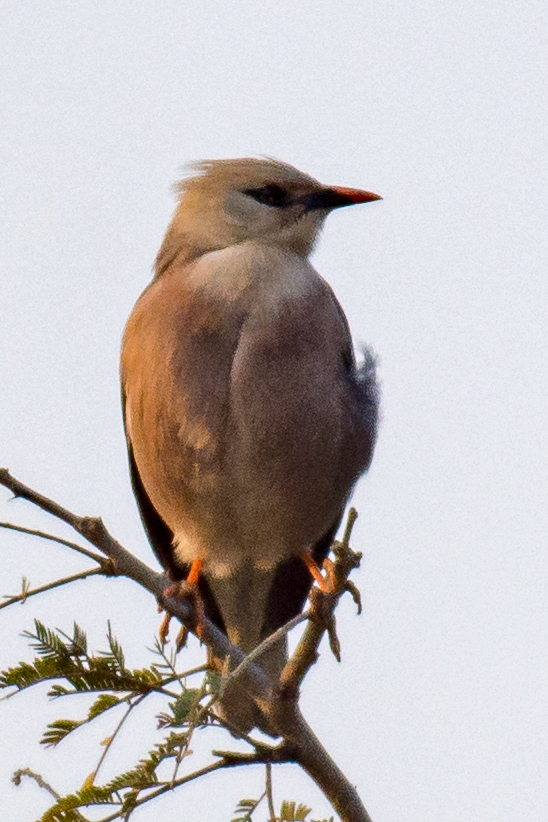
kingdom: Animalia
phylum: Chordata
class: Aves
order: Passeriformes
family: Sturnidae
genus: Acridotheres
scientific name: Acridotheres burmannicus
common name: Vinous-breasted starling
